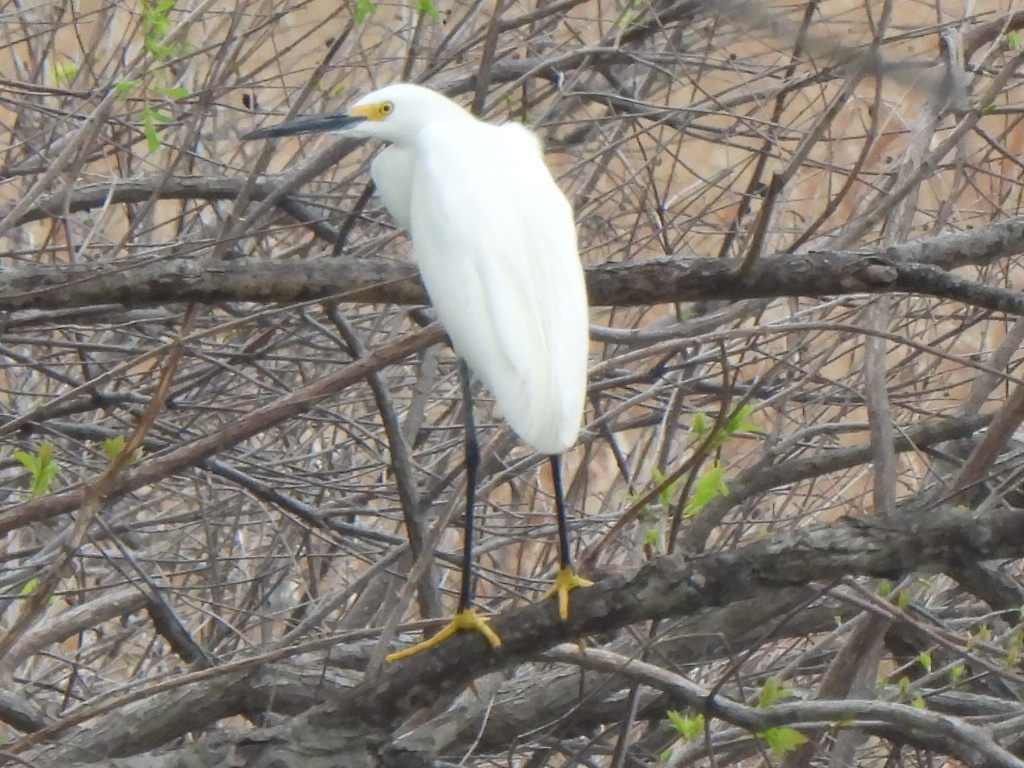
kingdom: Animalia
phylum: Chordata
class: Aves
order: Pelecaniformes
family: Ardeidae
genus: Egretta
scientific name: Egretta thula
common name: Snowy egret
